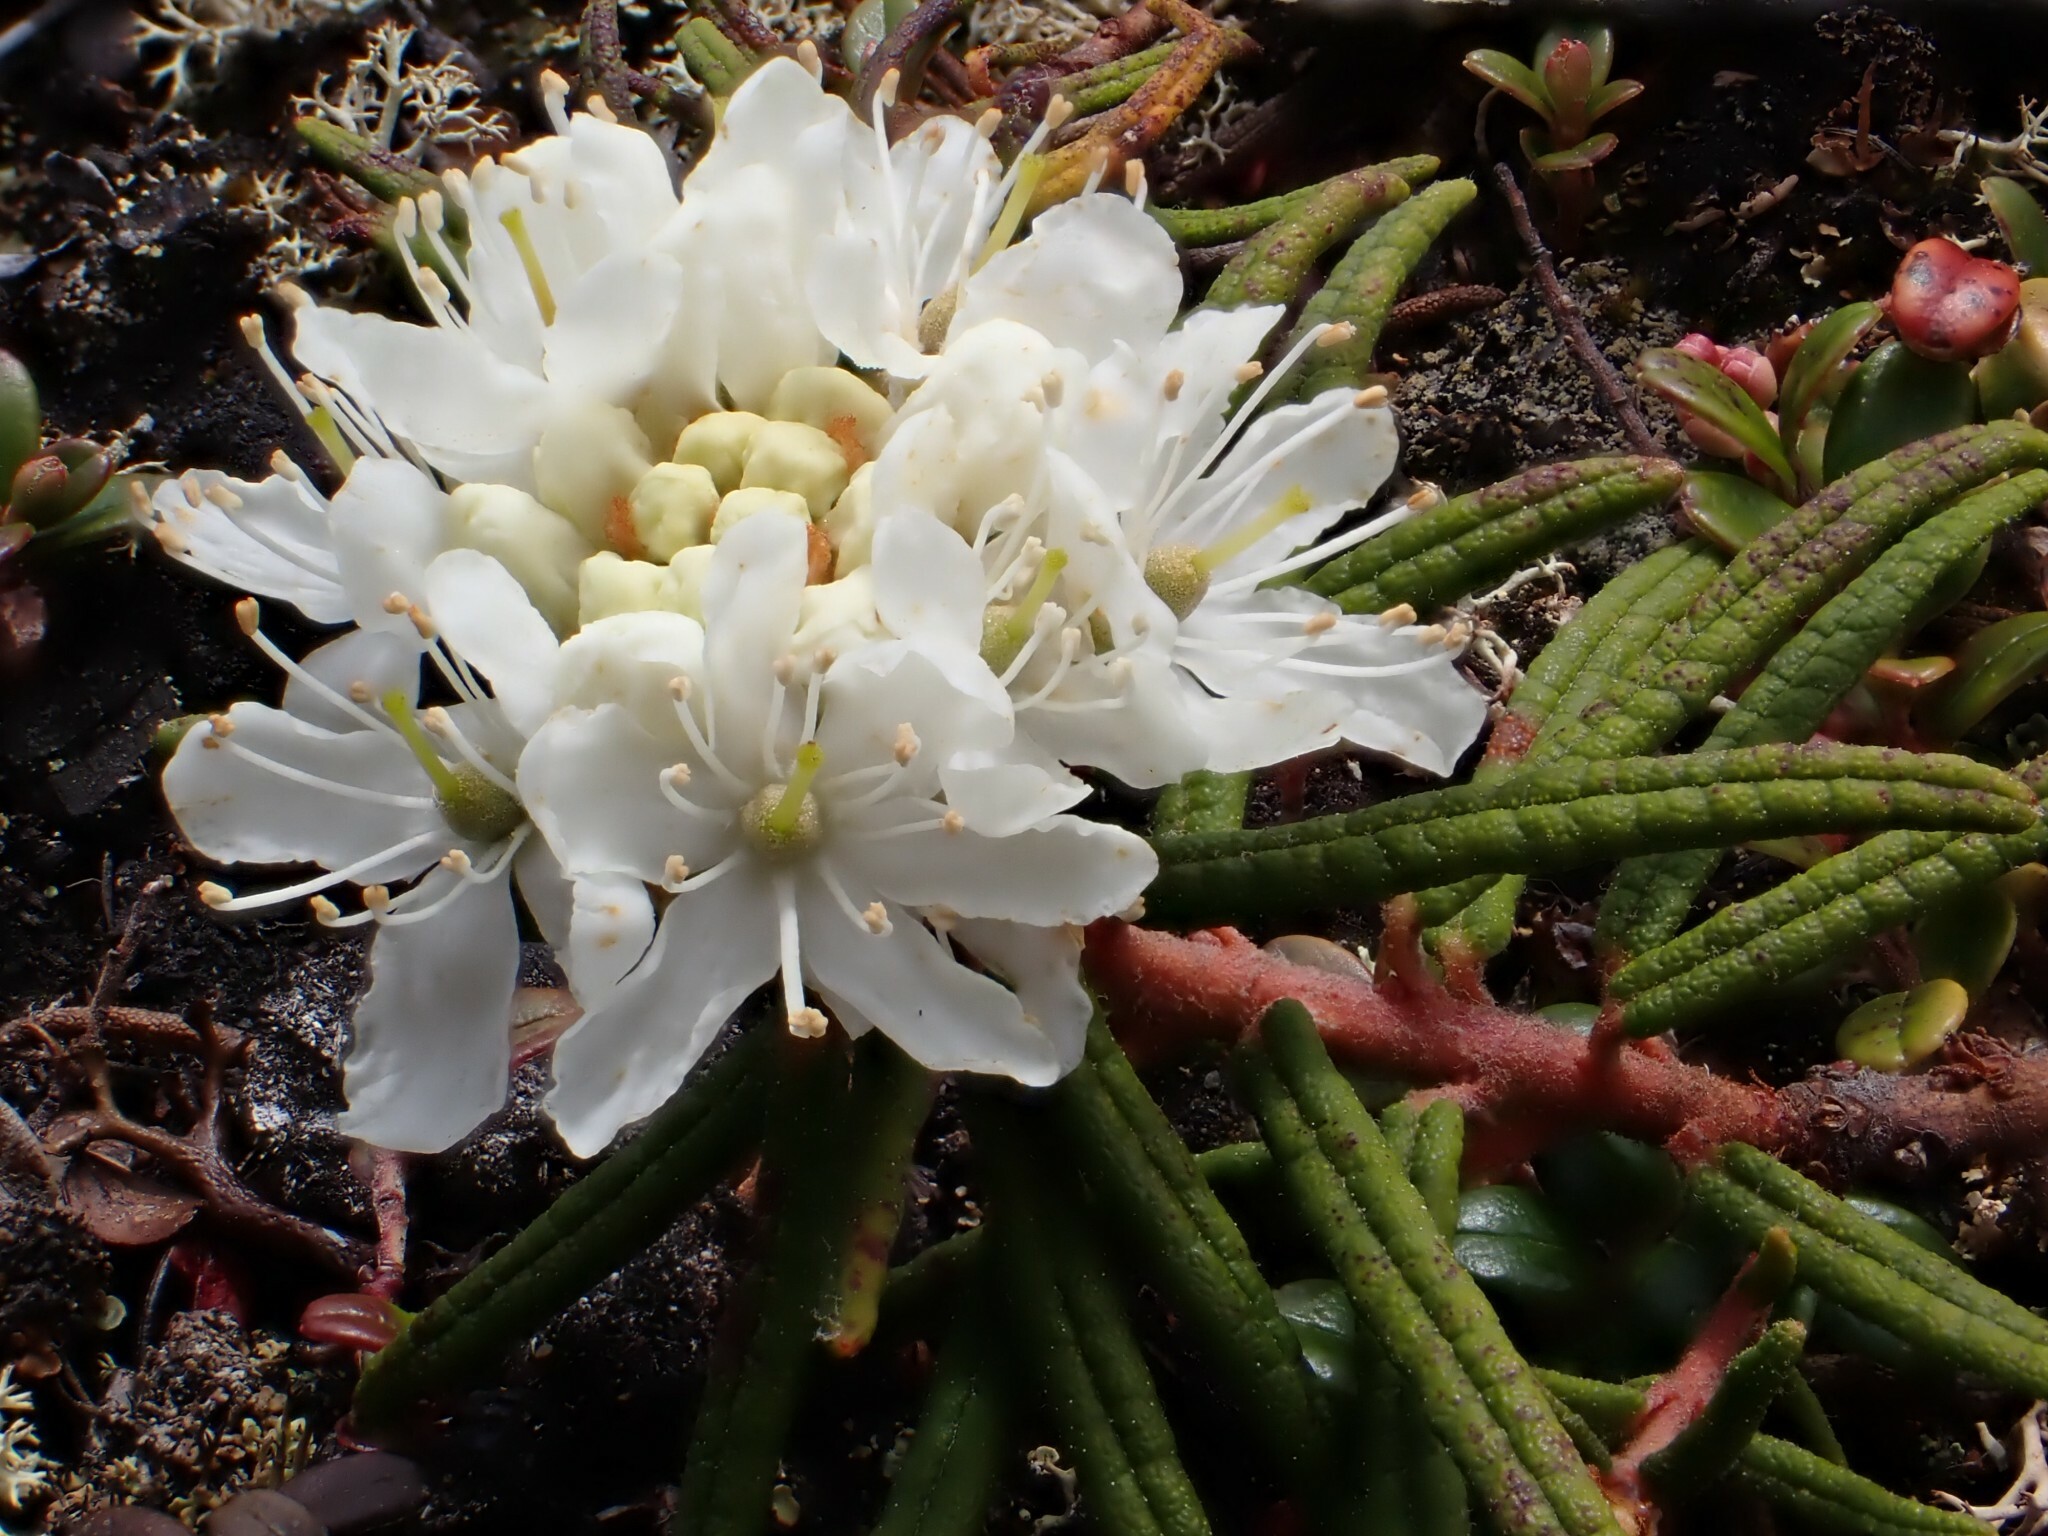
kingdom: Plantae
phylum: Tracheophyta
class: Magnoliopsida
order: Ericales
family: Ericaceae
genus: Rhododendron
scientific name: Rhododendron tomentosum
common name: Marsh labrador tea
